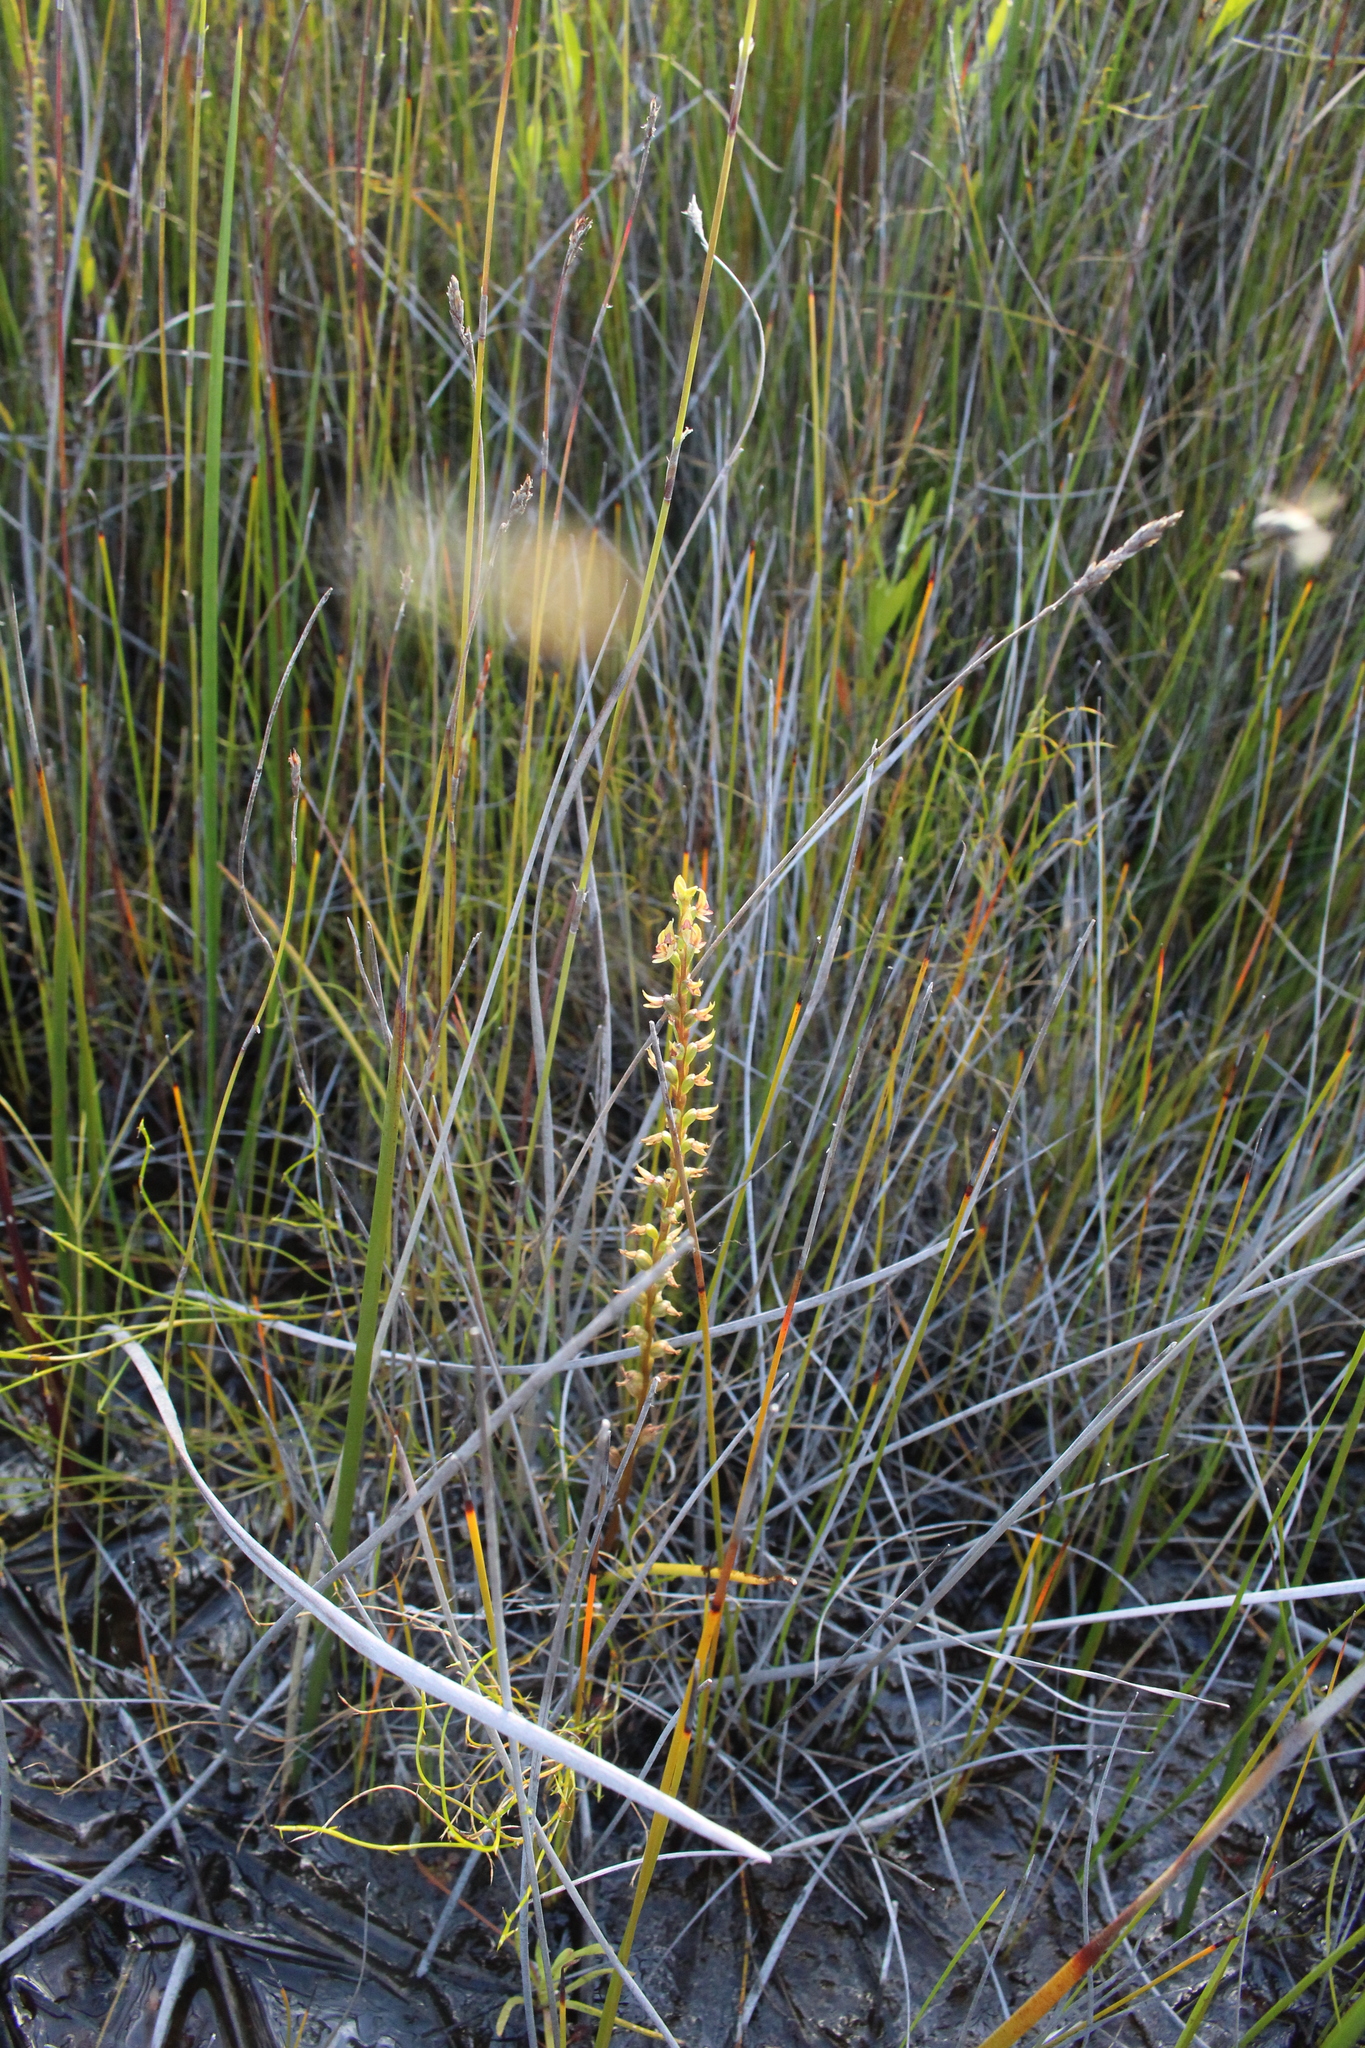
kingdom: Plantae
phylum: Tracheophyta
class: Liliopsida
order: Asparagales
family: Orchidaceae
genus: Prasophyllum
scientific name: Prasophyllum paulinae
